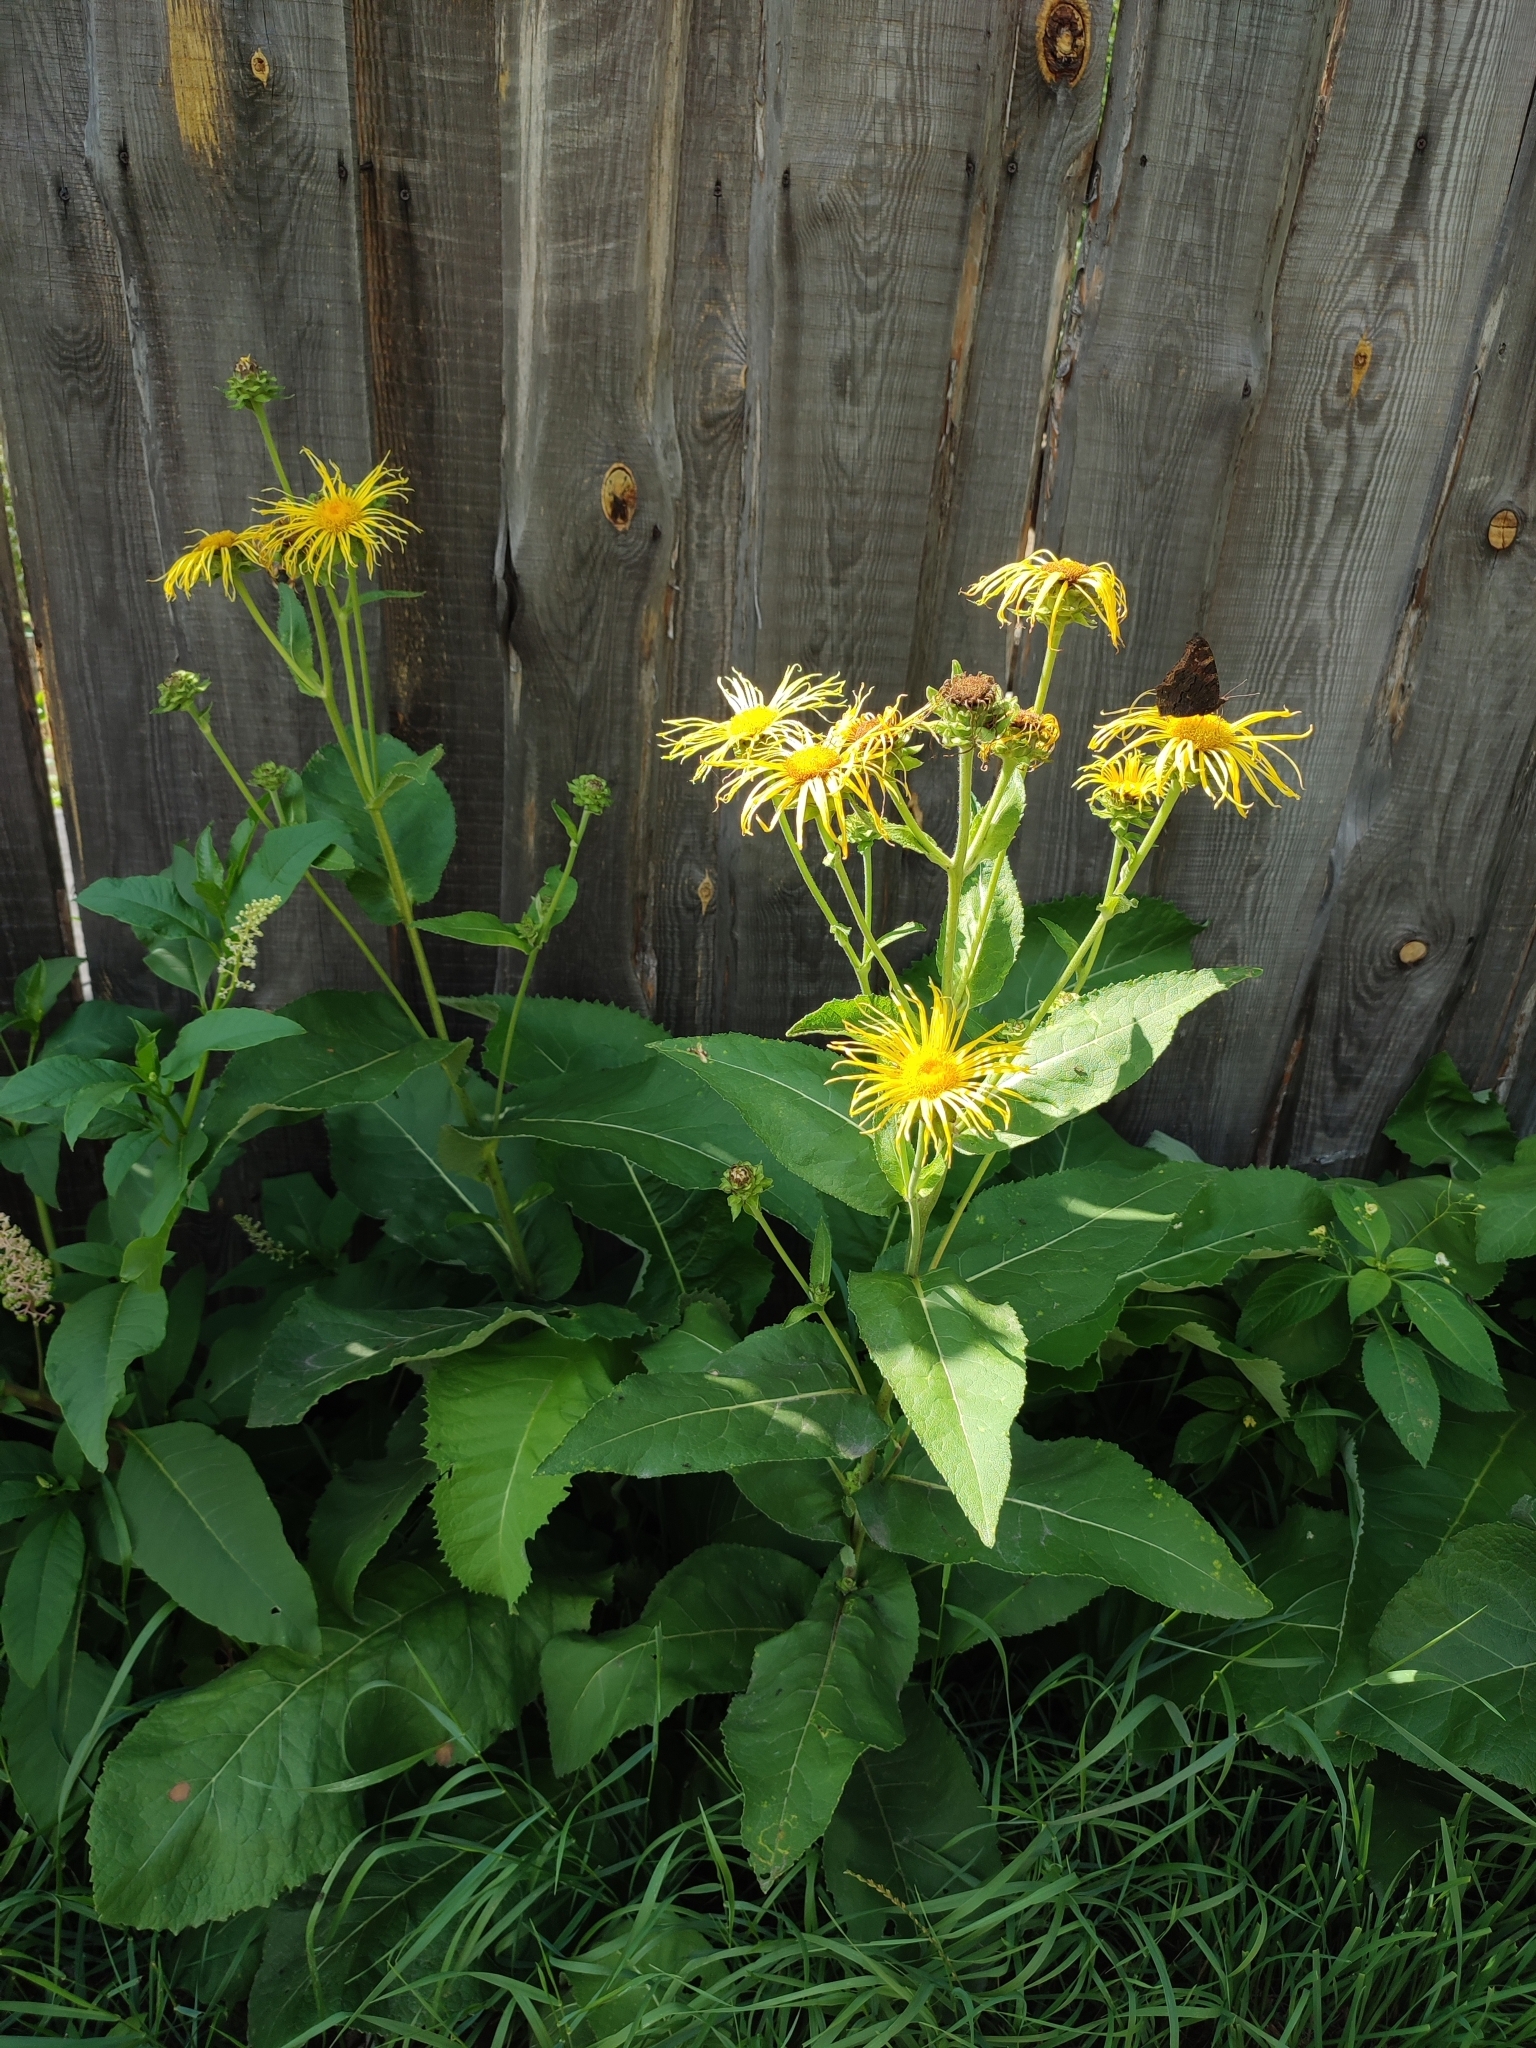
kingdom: Plantae
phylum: Tracheophyta
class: Magnoliopsida
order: Asterales
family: Asteraceae
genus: Inula
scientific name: Inula helenium
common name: Elecampane
